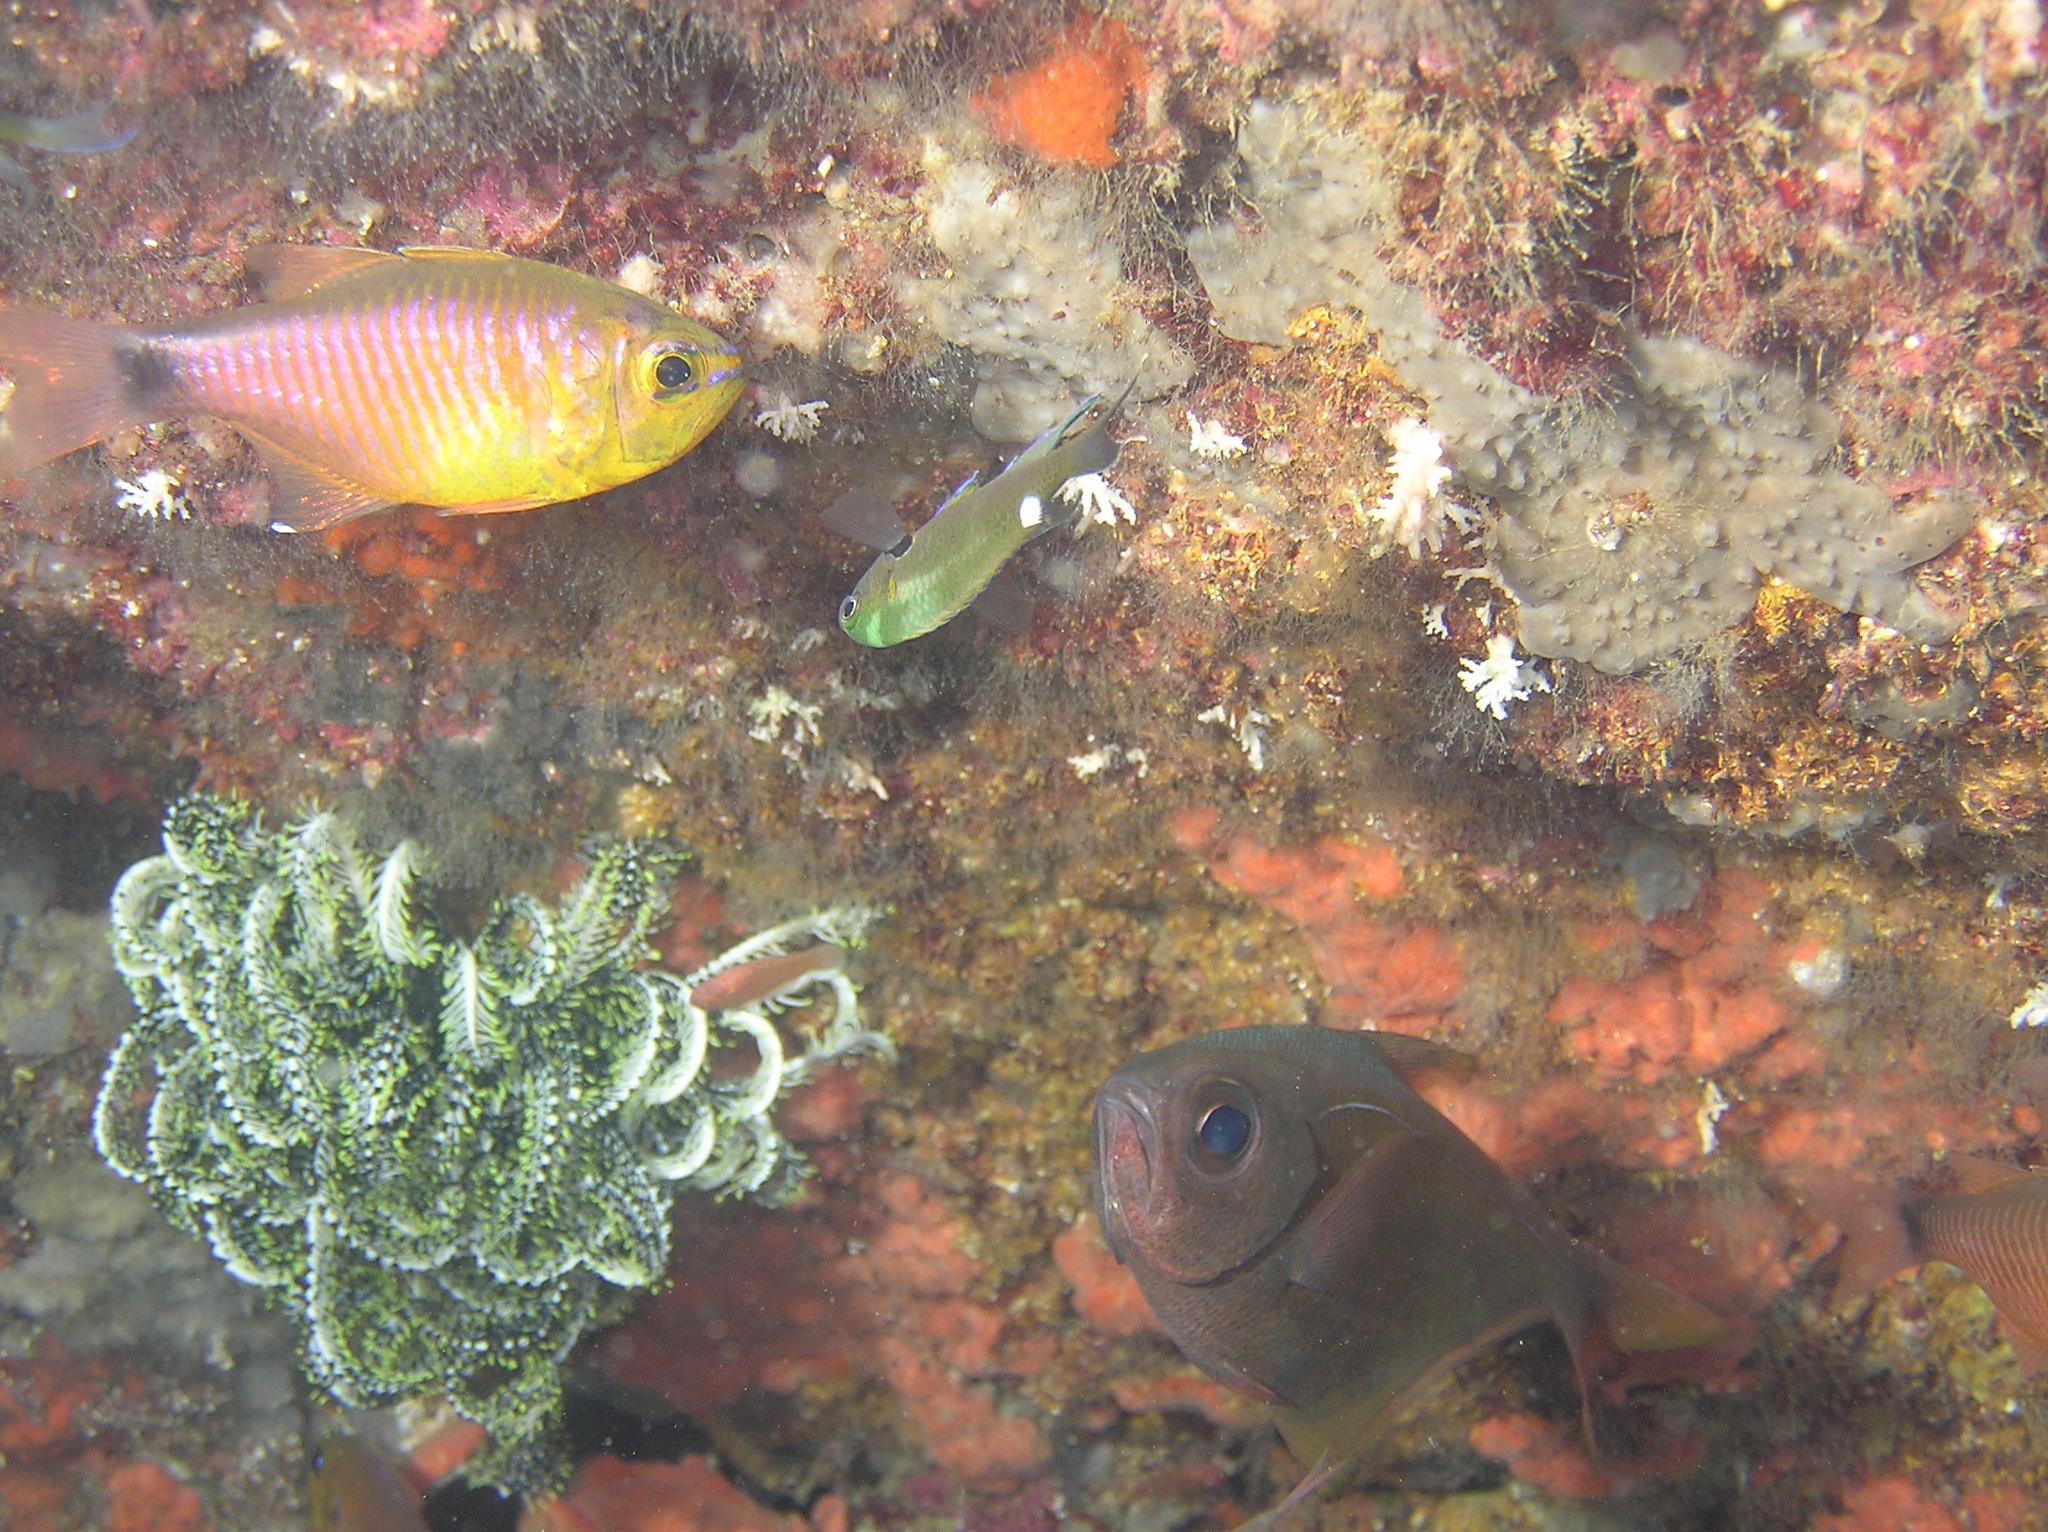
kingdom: Animalia
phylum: Chordata
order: Perciformes
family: Pomacentridae
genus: Neopomacentrus
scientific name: Neopomacentrus cyanomos
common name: Regal demoiselle
